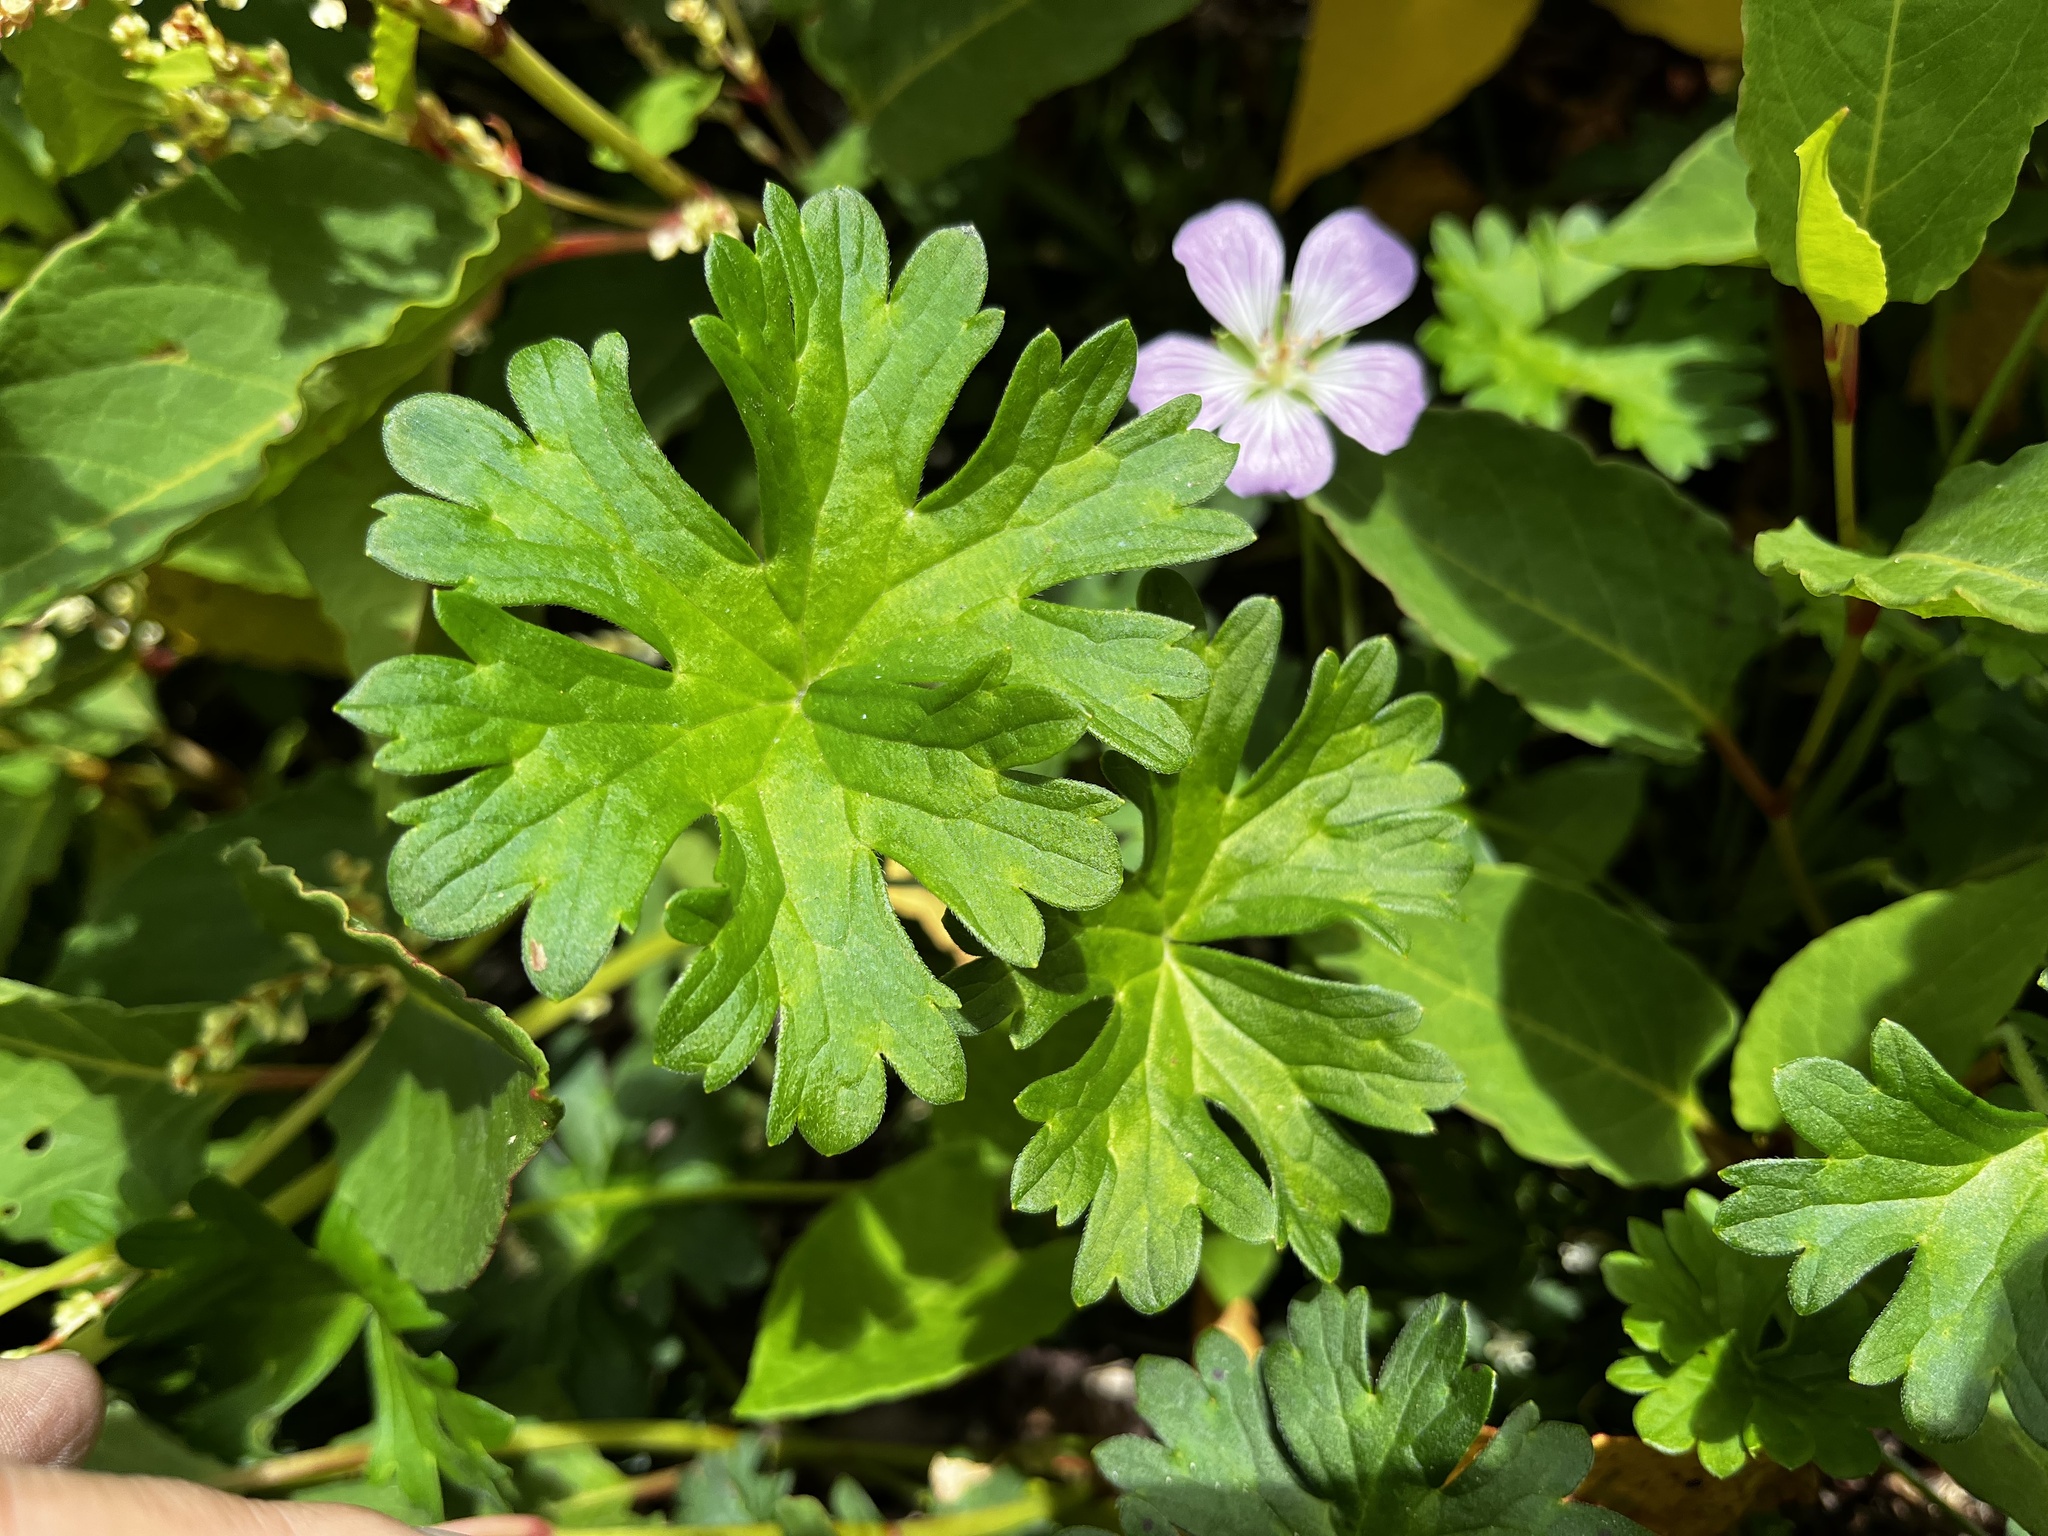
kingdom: Plantae
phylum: Tracheophyta
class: Magnoliopsida
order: Geraniales
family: Geraniaceae
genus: Geranium
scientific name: Geranium hayatanum
